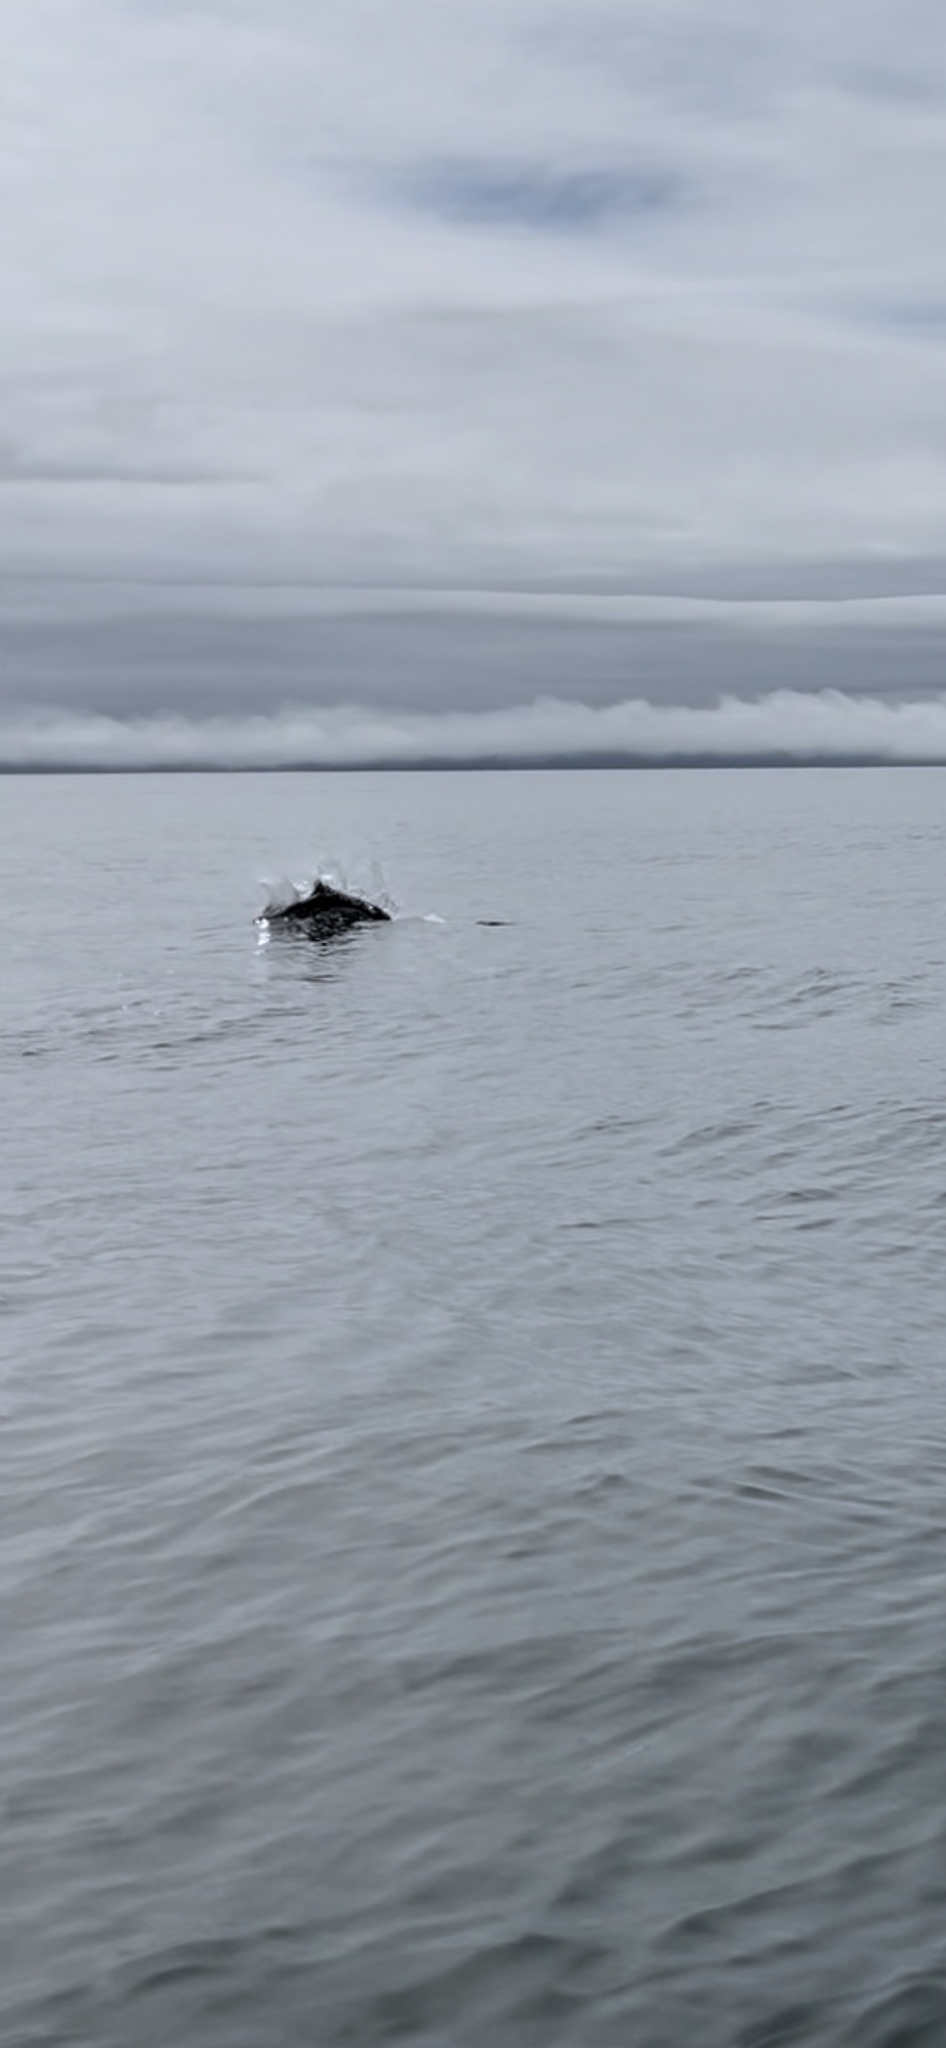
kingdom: Animalia
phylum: Chordata
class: Mammalia
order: Cetacea
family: Phocoenidae
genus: Phocoenoides
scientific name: Phocoenoides dalli
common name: Dall's porpoise
